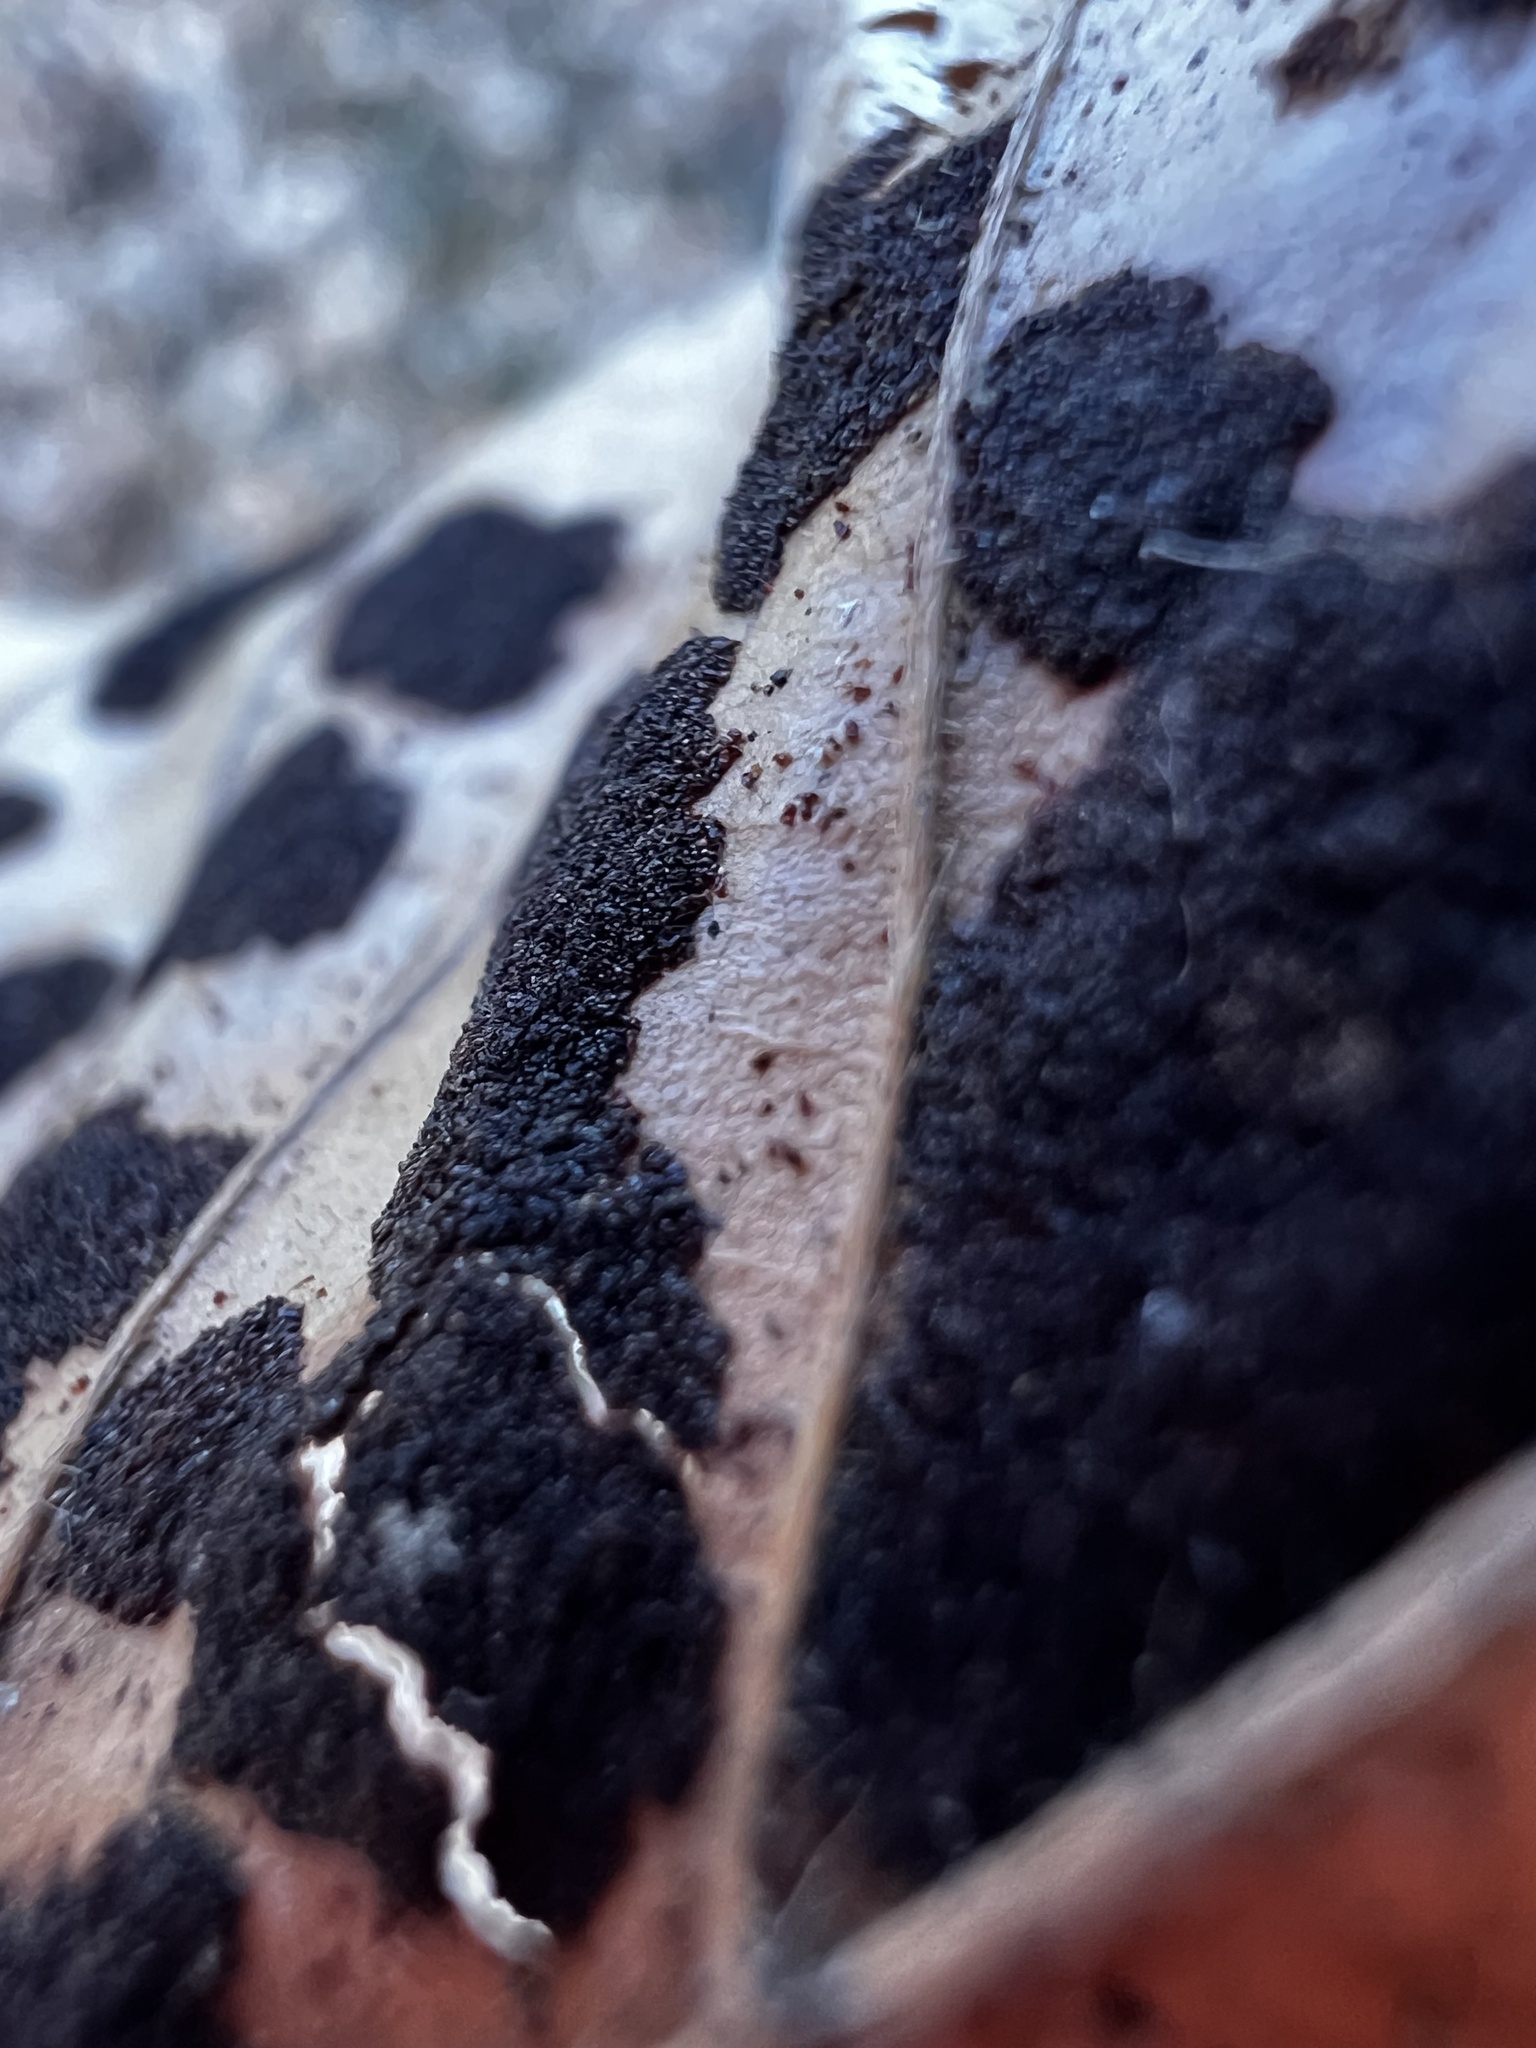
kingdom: Animalia
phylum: Arthropoda
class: Arachnida
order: Trombidiformes
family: Eriophyidae
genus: Acalitus
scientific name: Acalitus
